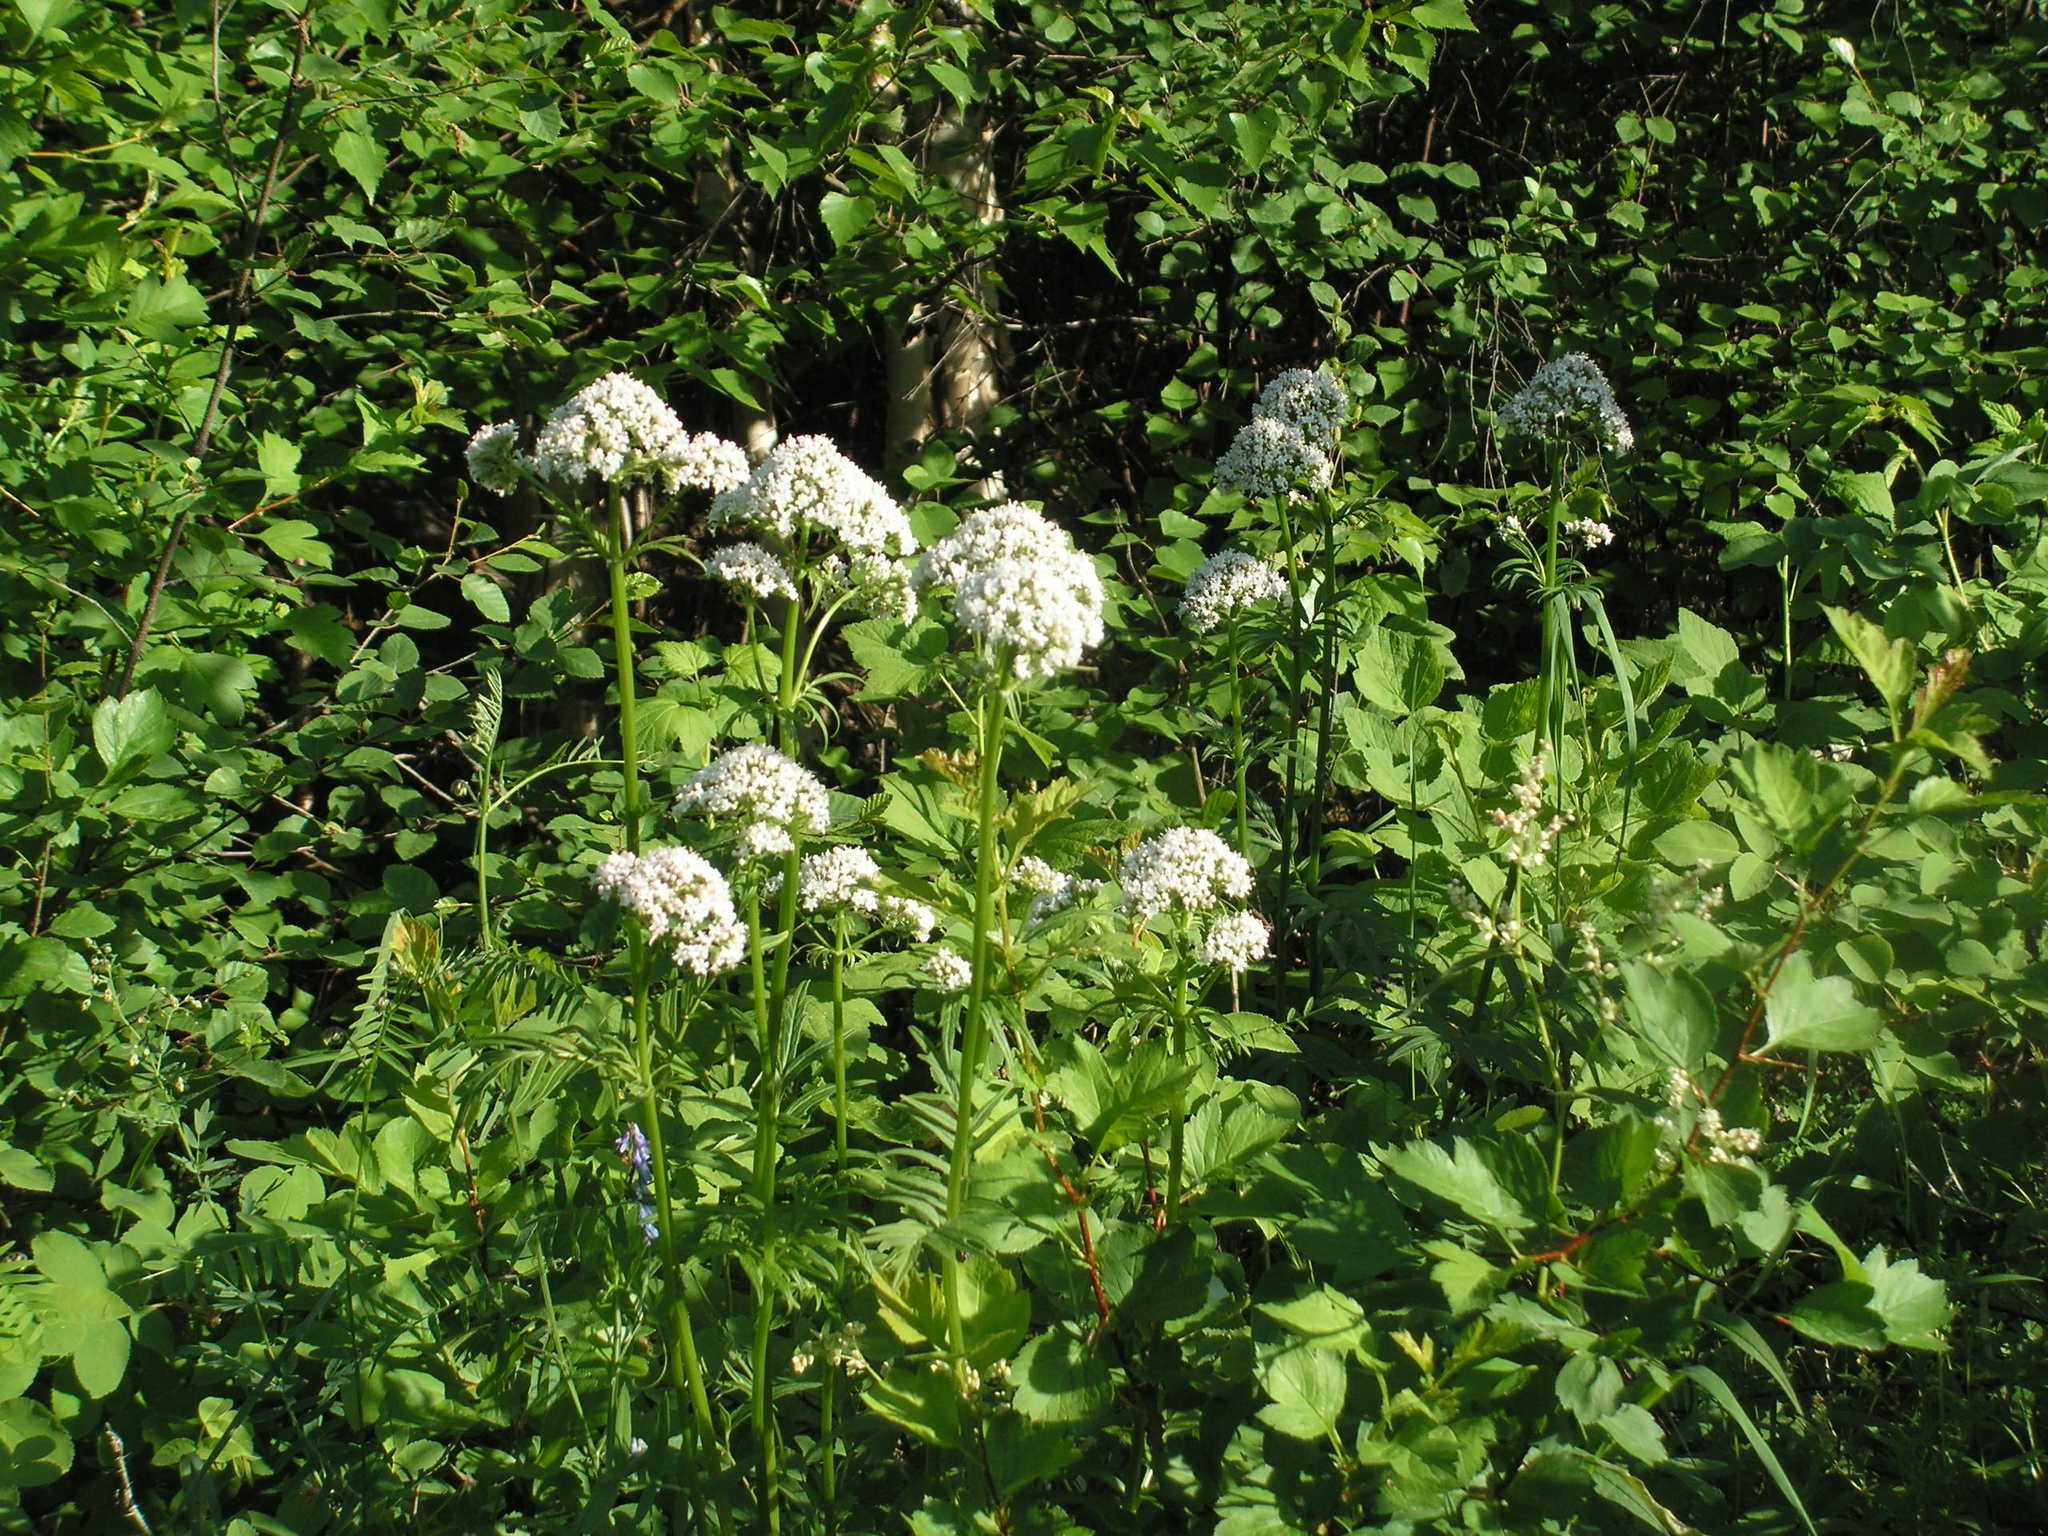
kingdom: Plantae
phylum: Tracheophyta
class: Magnoliopsida
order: Dipsacales
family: Caprifoliaceae
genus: Valeriana
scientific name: Valeriana officinalis
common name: Common valerian
